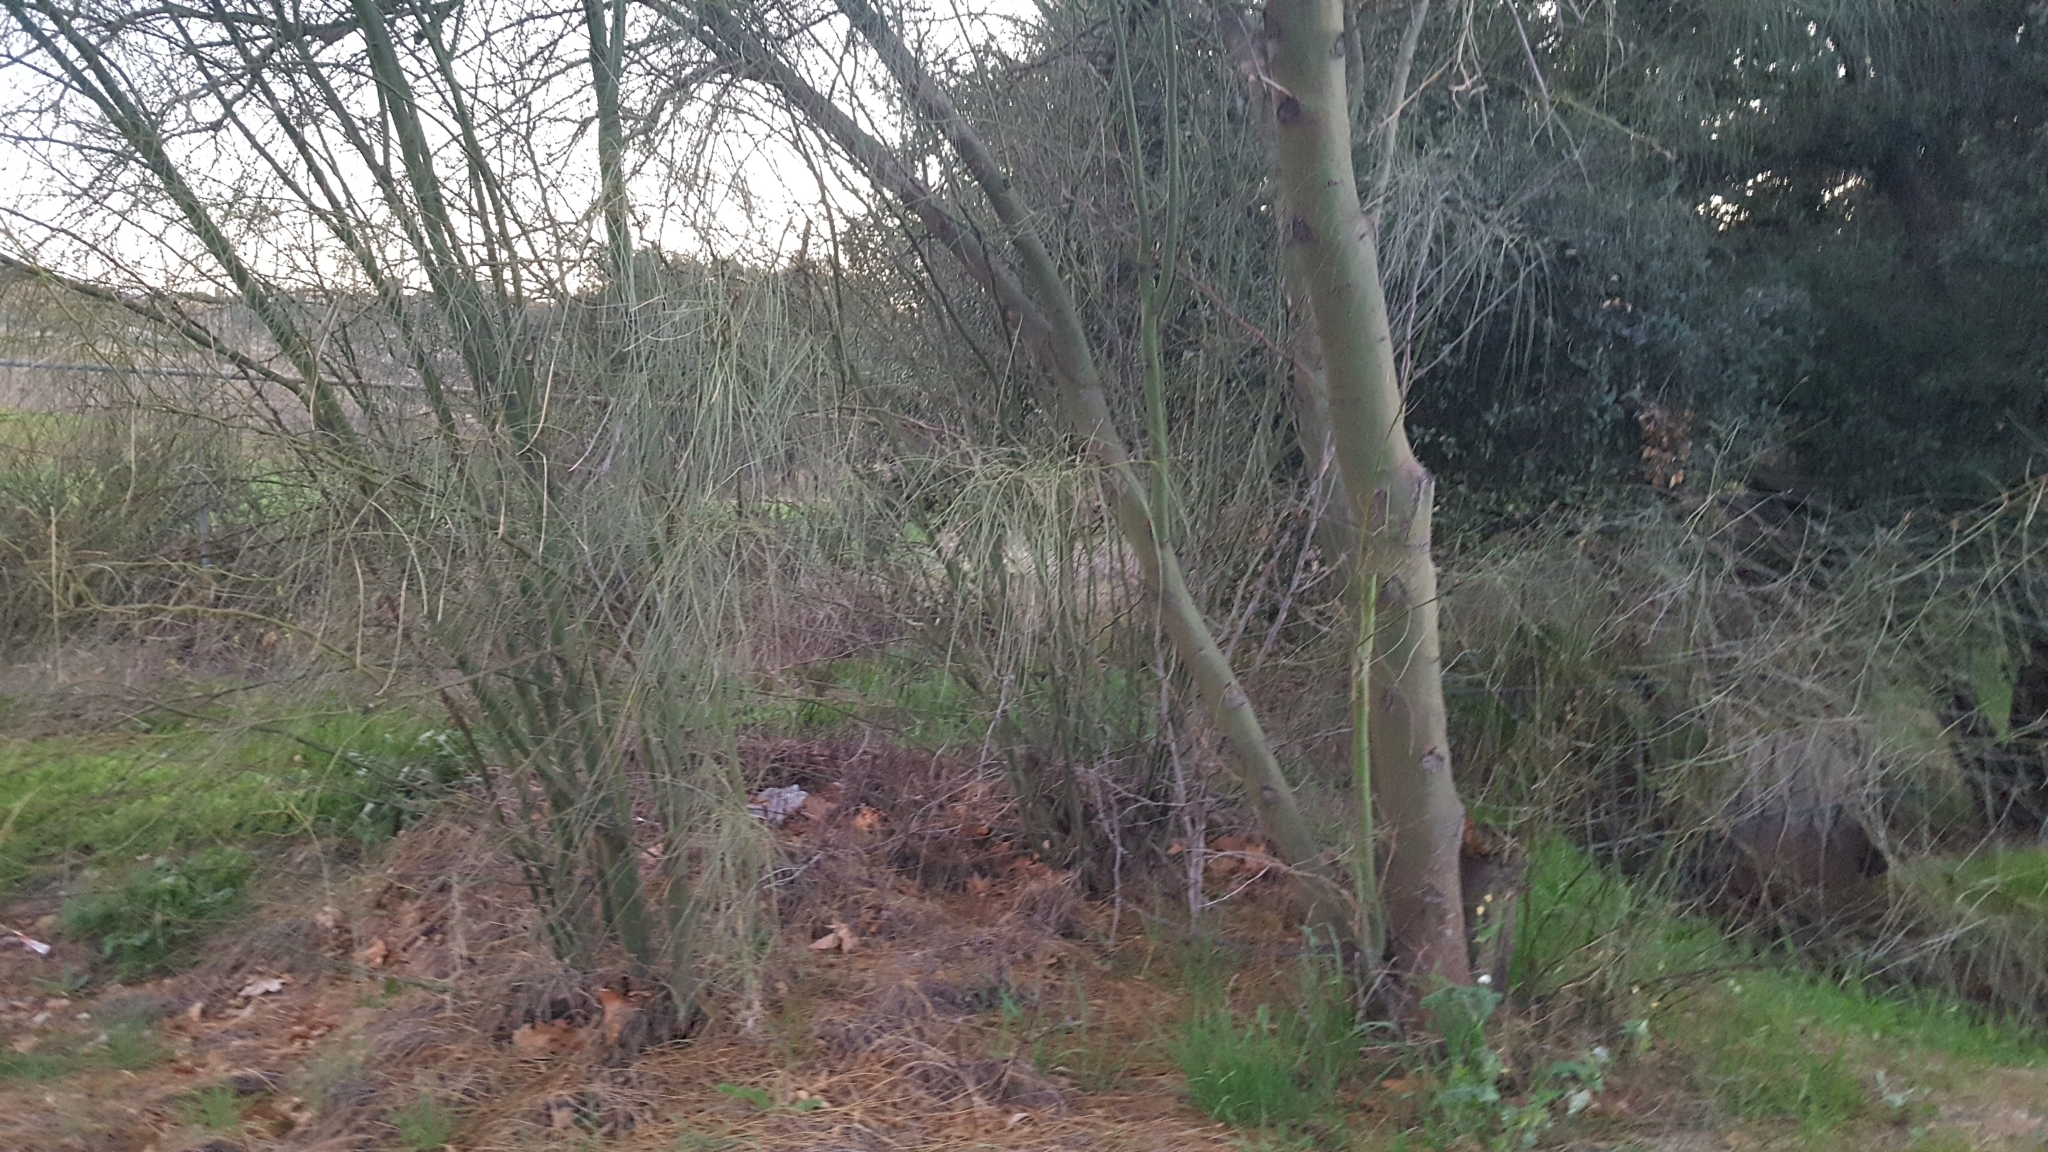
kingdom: Plantae
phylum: Tracheophyta
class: Magnoliopsida
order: Fabales
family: Fabaceae
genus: Parkinsonia
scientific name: Parkinsonia aculeata
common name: Jerusalem thorn
